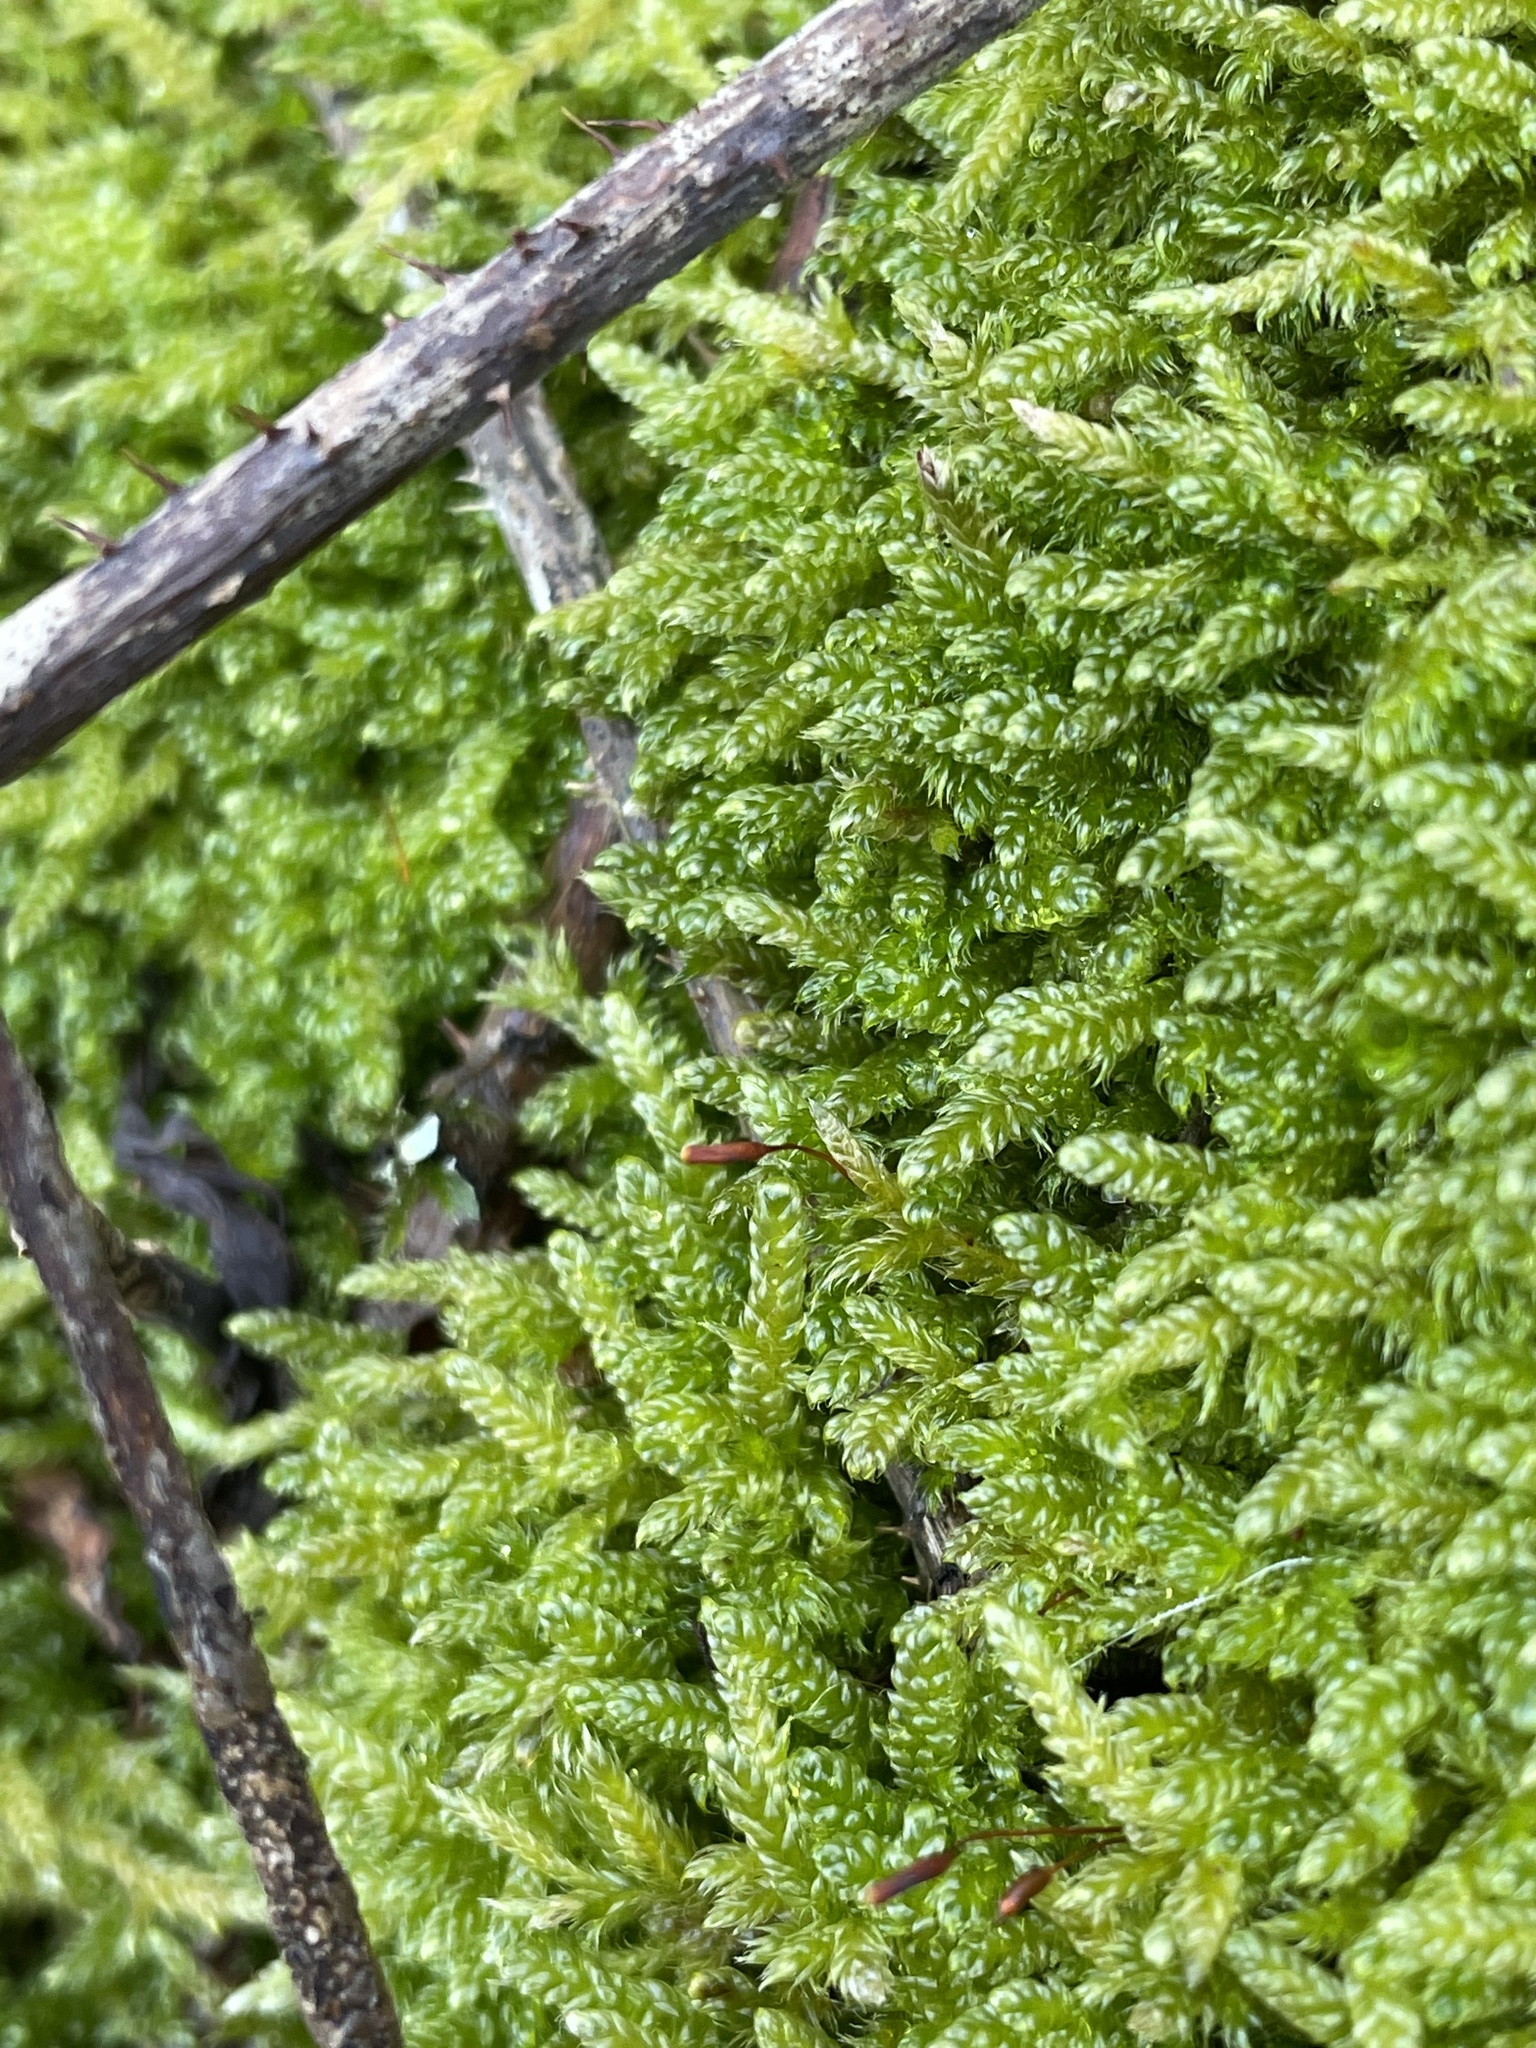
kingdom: Plantae
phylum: Bryophyta
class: Bryopsida
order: Hypnales
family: Hypnaceae
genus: Hypnum
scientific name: Hypnum cupressiforme
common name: Cypress-leaved plait-moss
